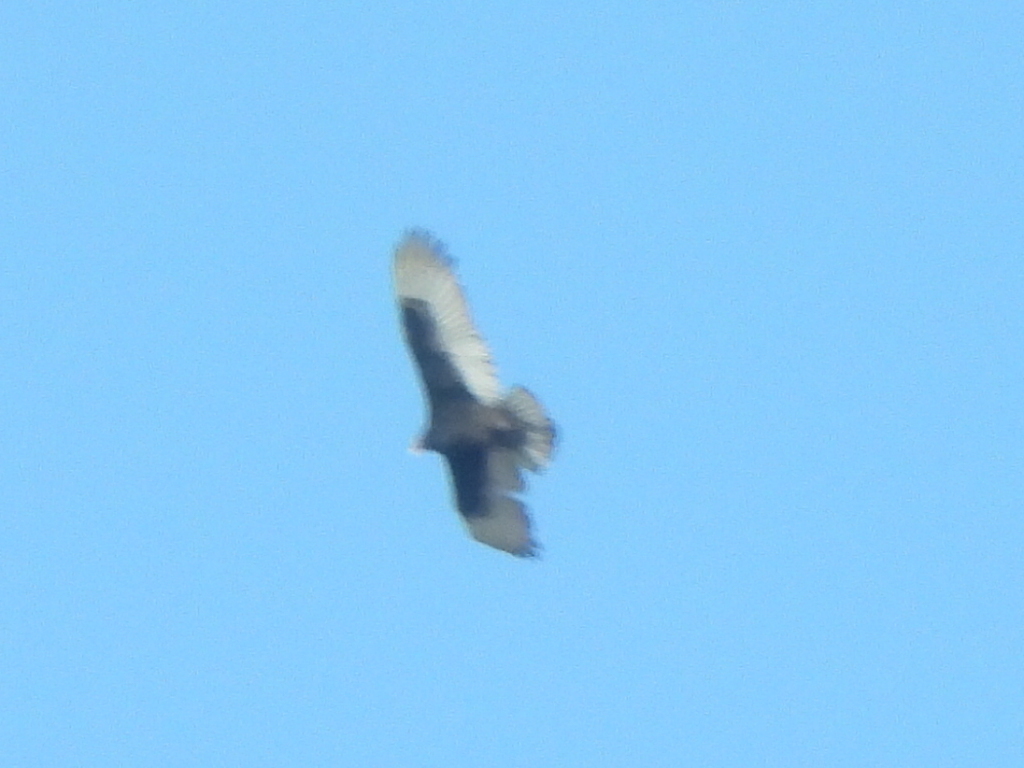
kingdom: Animalia
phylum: Chordata
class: Aves
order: Accipitriformes
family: Cathartidae
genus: Cathartes
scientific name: Cathartes aura
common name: Turkey vulture
